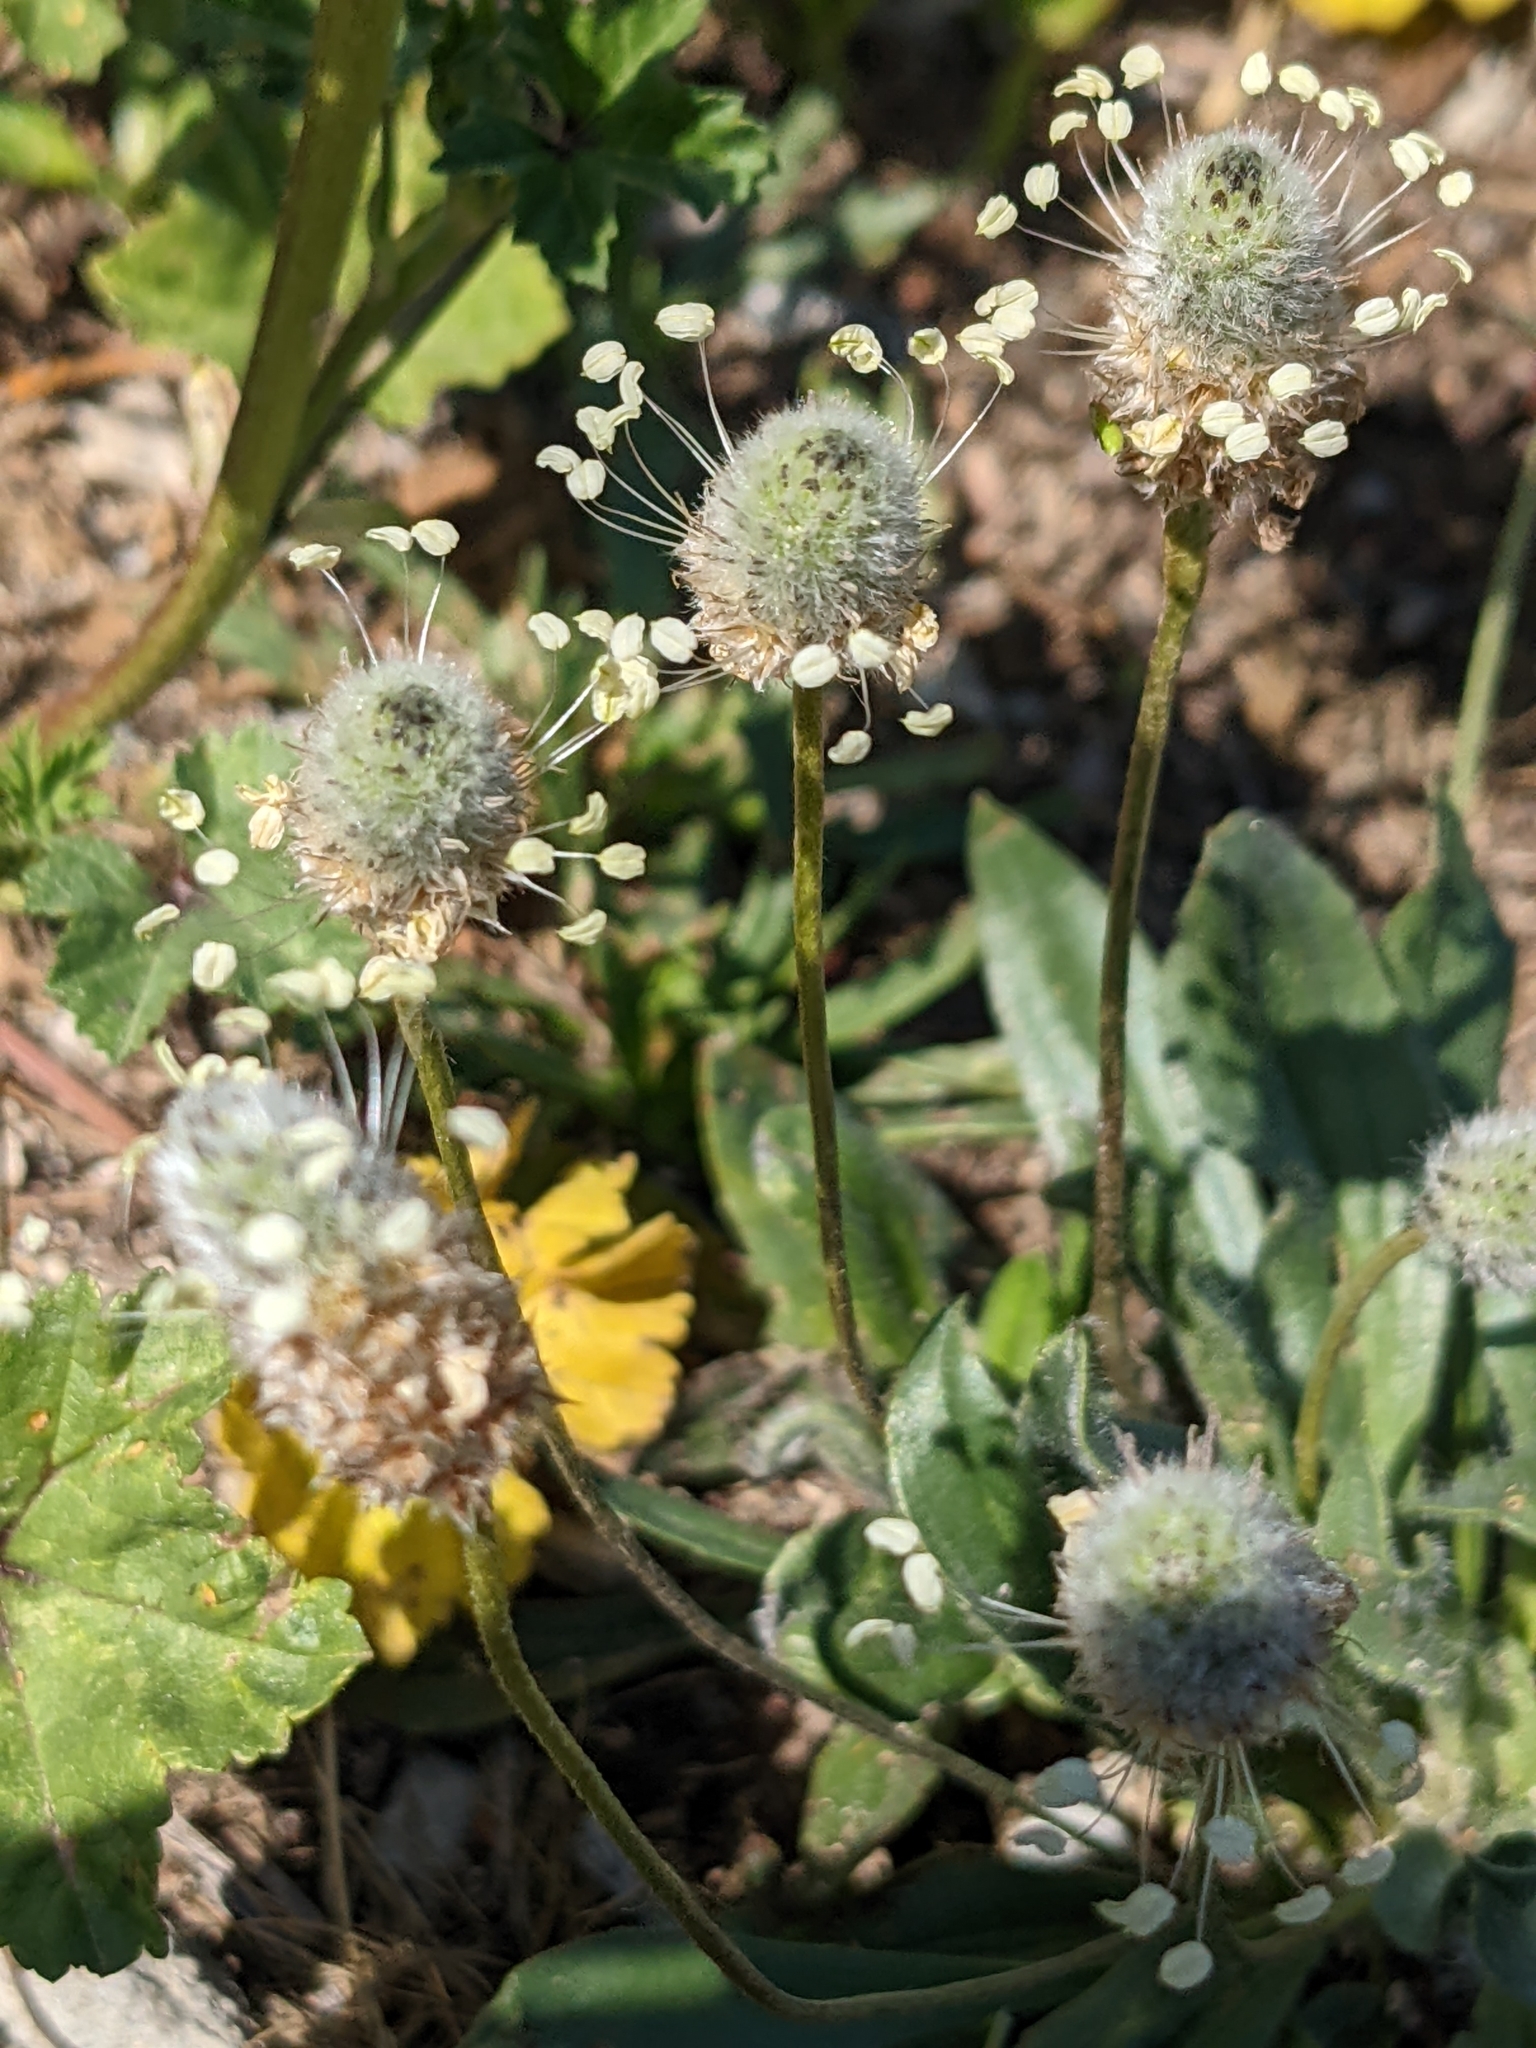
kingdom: Plantae
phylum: Tracheophyta
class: Magnoliopsida
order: Lamiales
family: Plantaginaceae
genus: Plantago
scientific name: Plantago lagopus
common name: Hare-foot plantain
